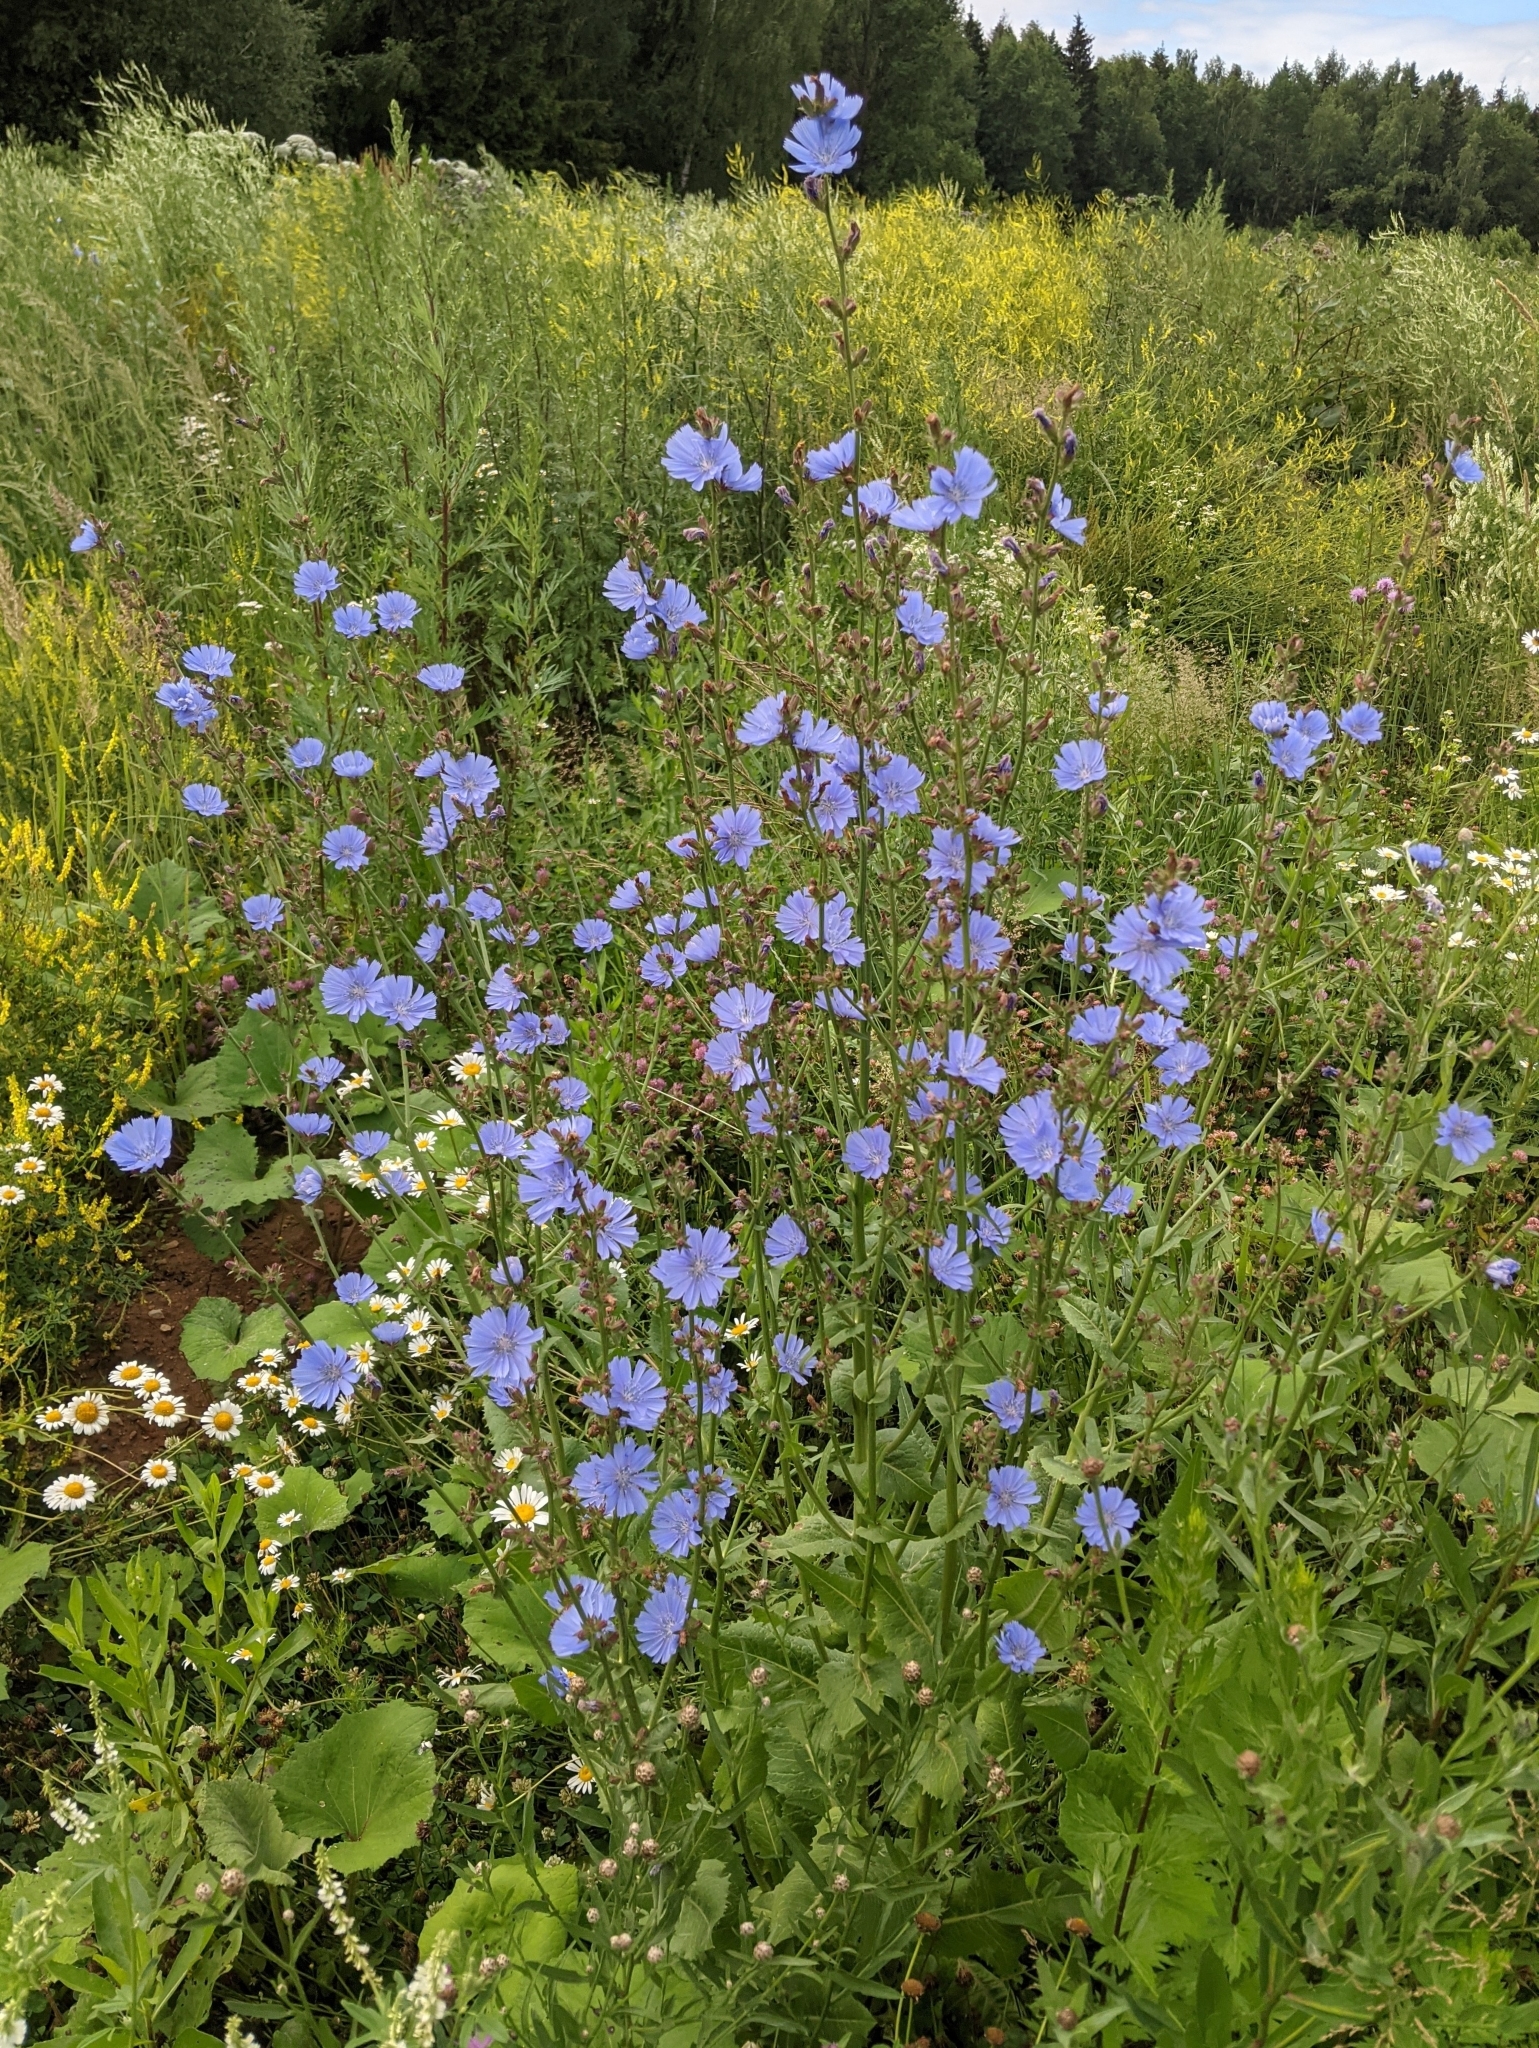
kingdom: Plantae
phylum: Tracheophyta
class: Magnoliopsida
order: Asterales
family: Asteraceae
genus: Cichorium
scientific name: Cichorium intybus
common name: Chicory
